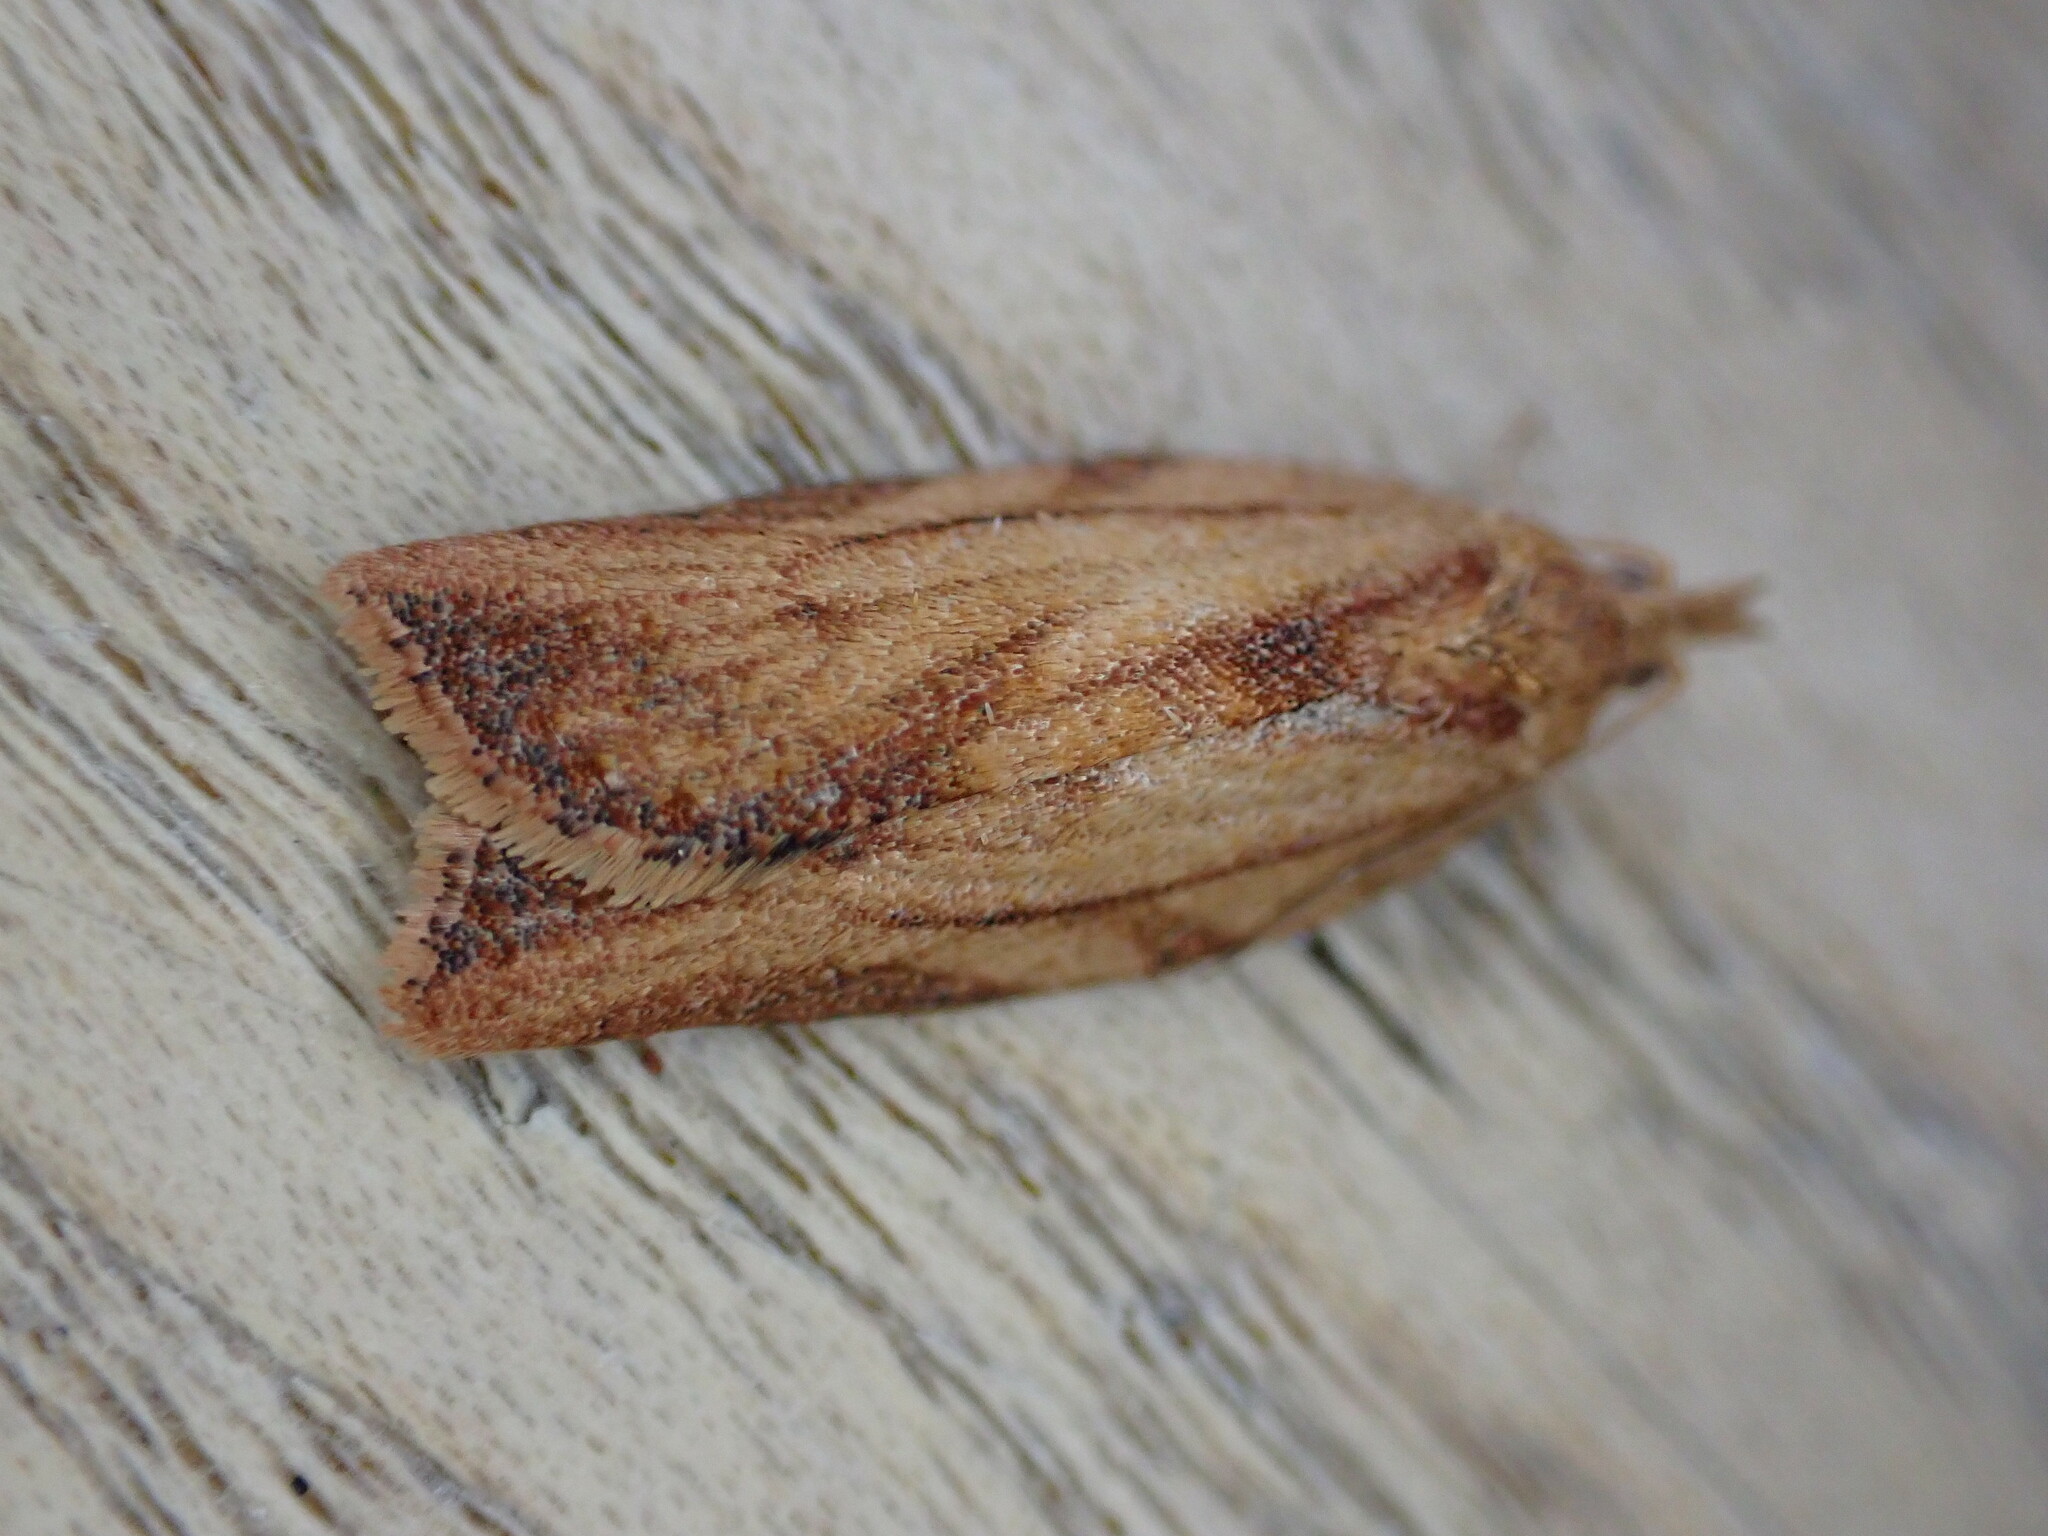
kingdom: Animalia
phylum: Arthropoda
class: Insecta
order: Lepidoptera
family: Tortricidae
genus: Epiphyas
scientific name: Epiphyas postvittana
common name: Light brown apple moth
